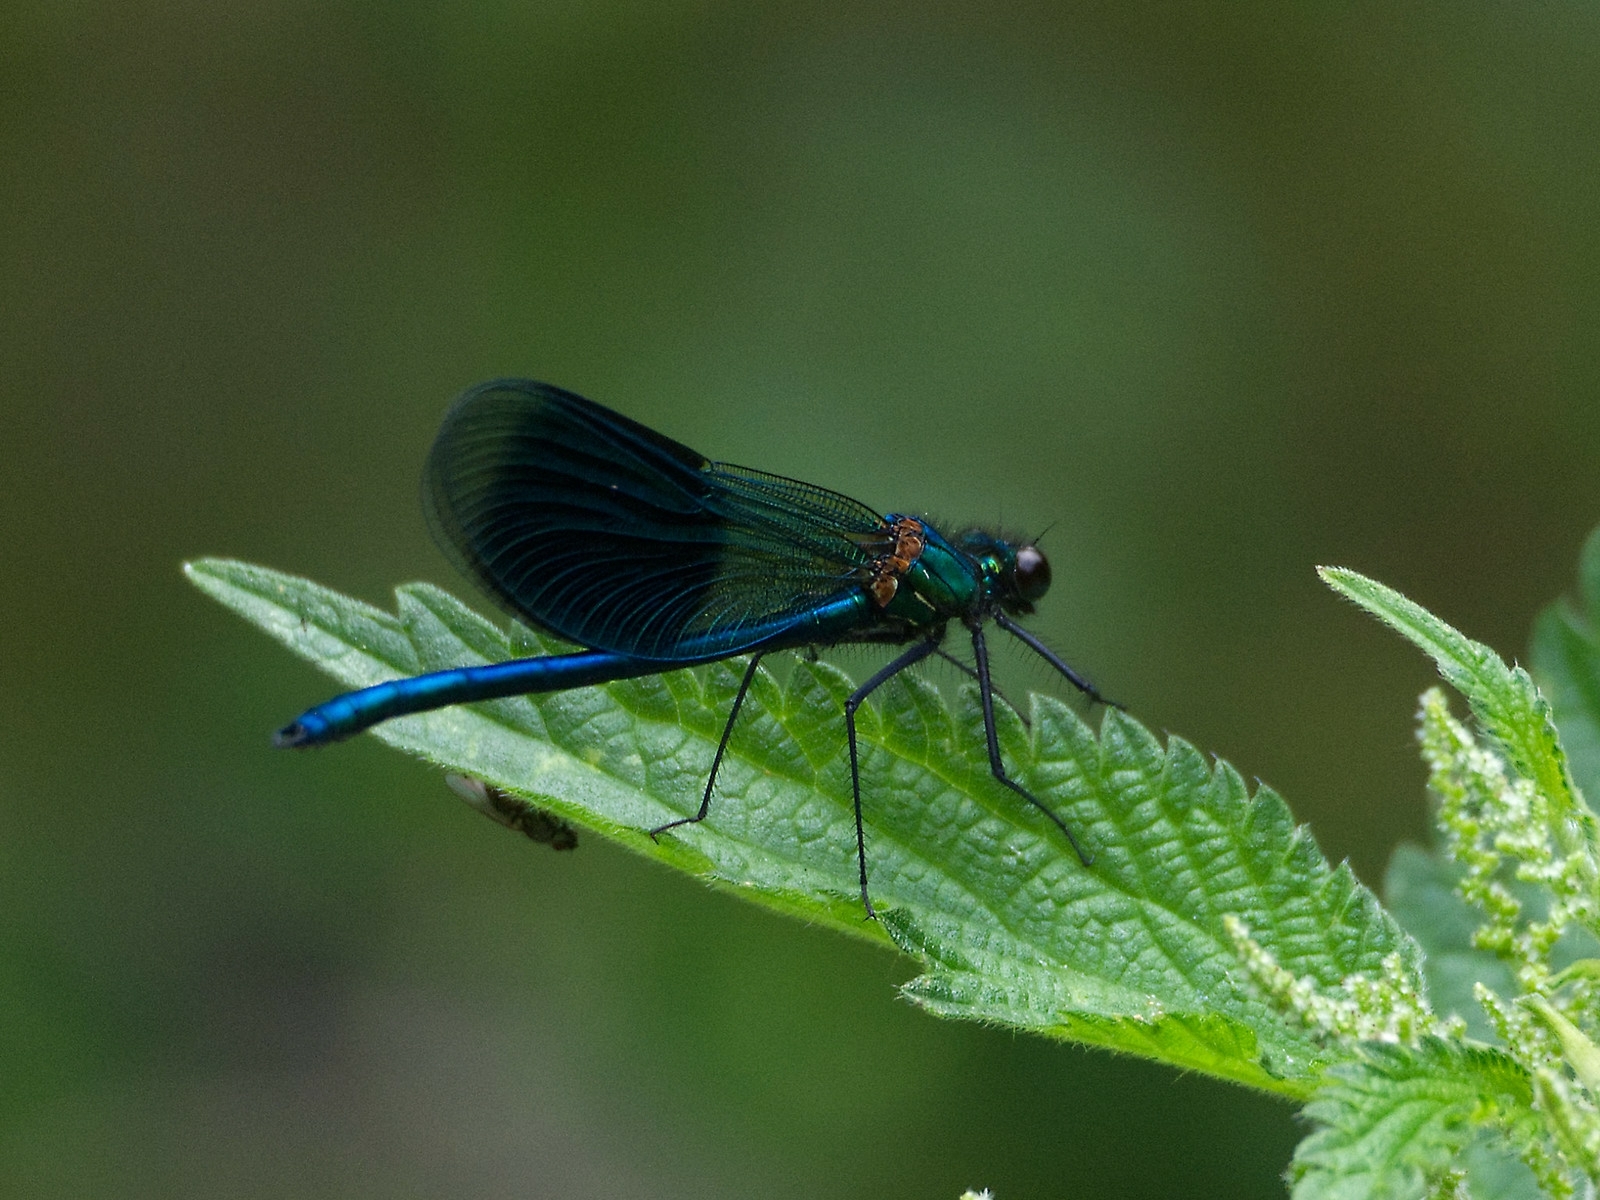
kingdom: Animalia
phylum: Arthropoda
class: Insecta
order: Odonata
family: Calopterygidae
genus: Calopteryx
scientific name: Calopteryx splendens
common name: Banded demoiselle
